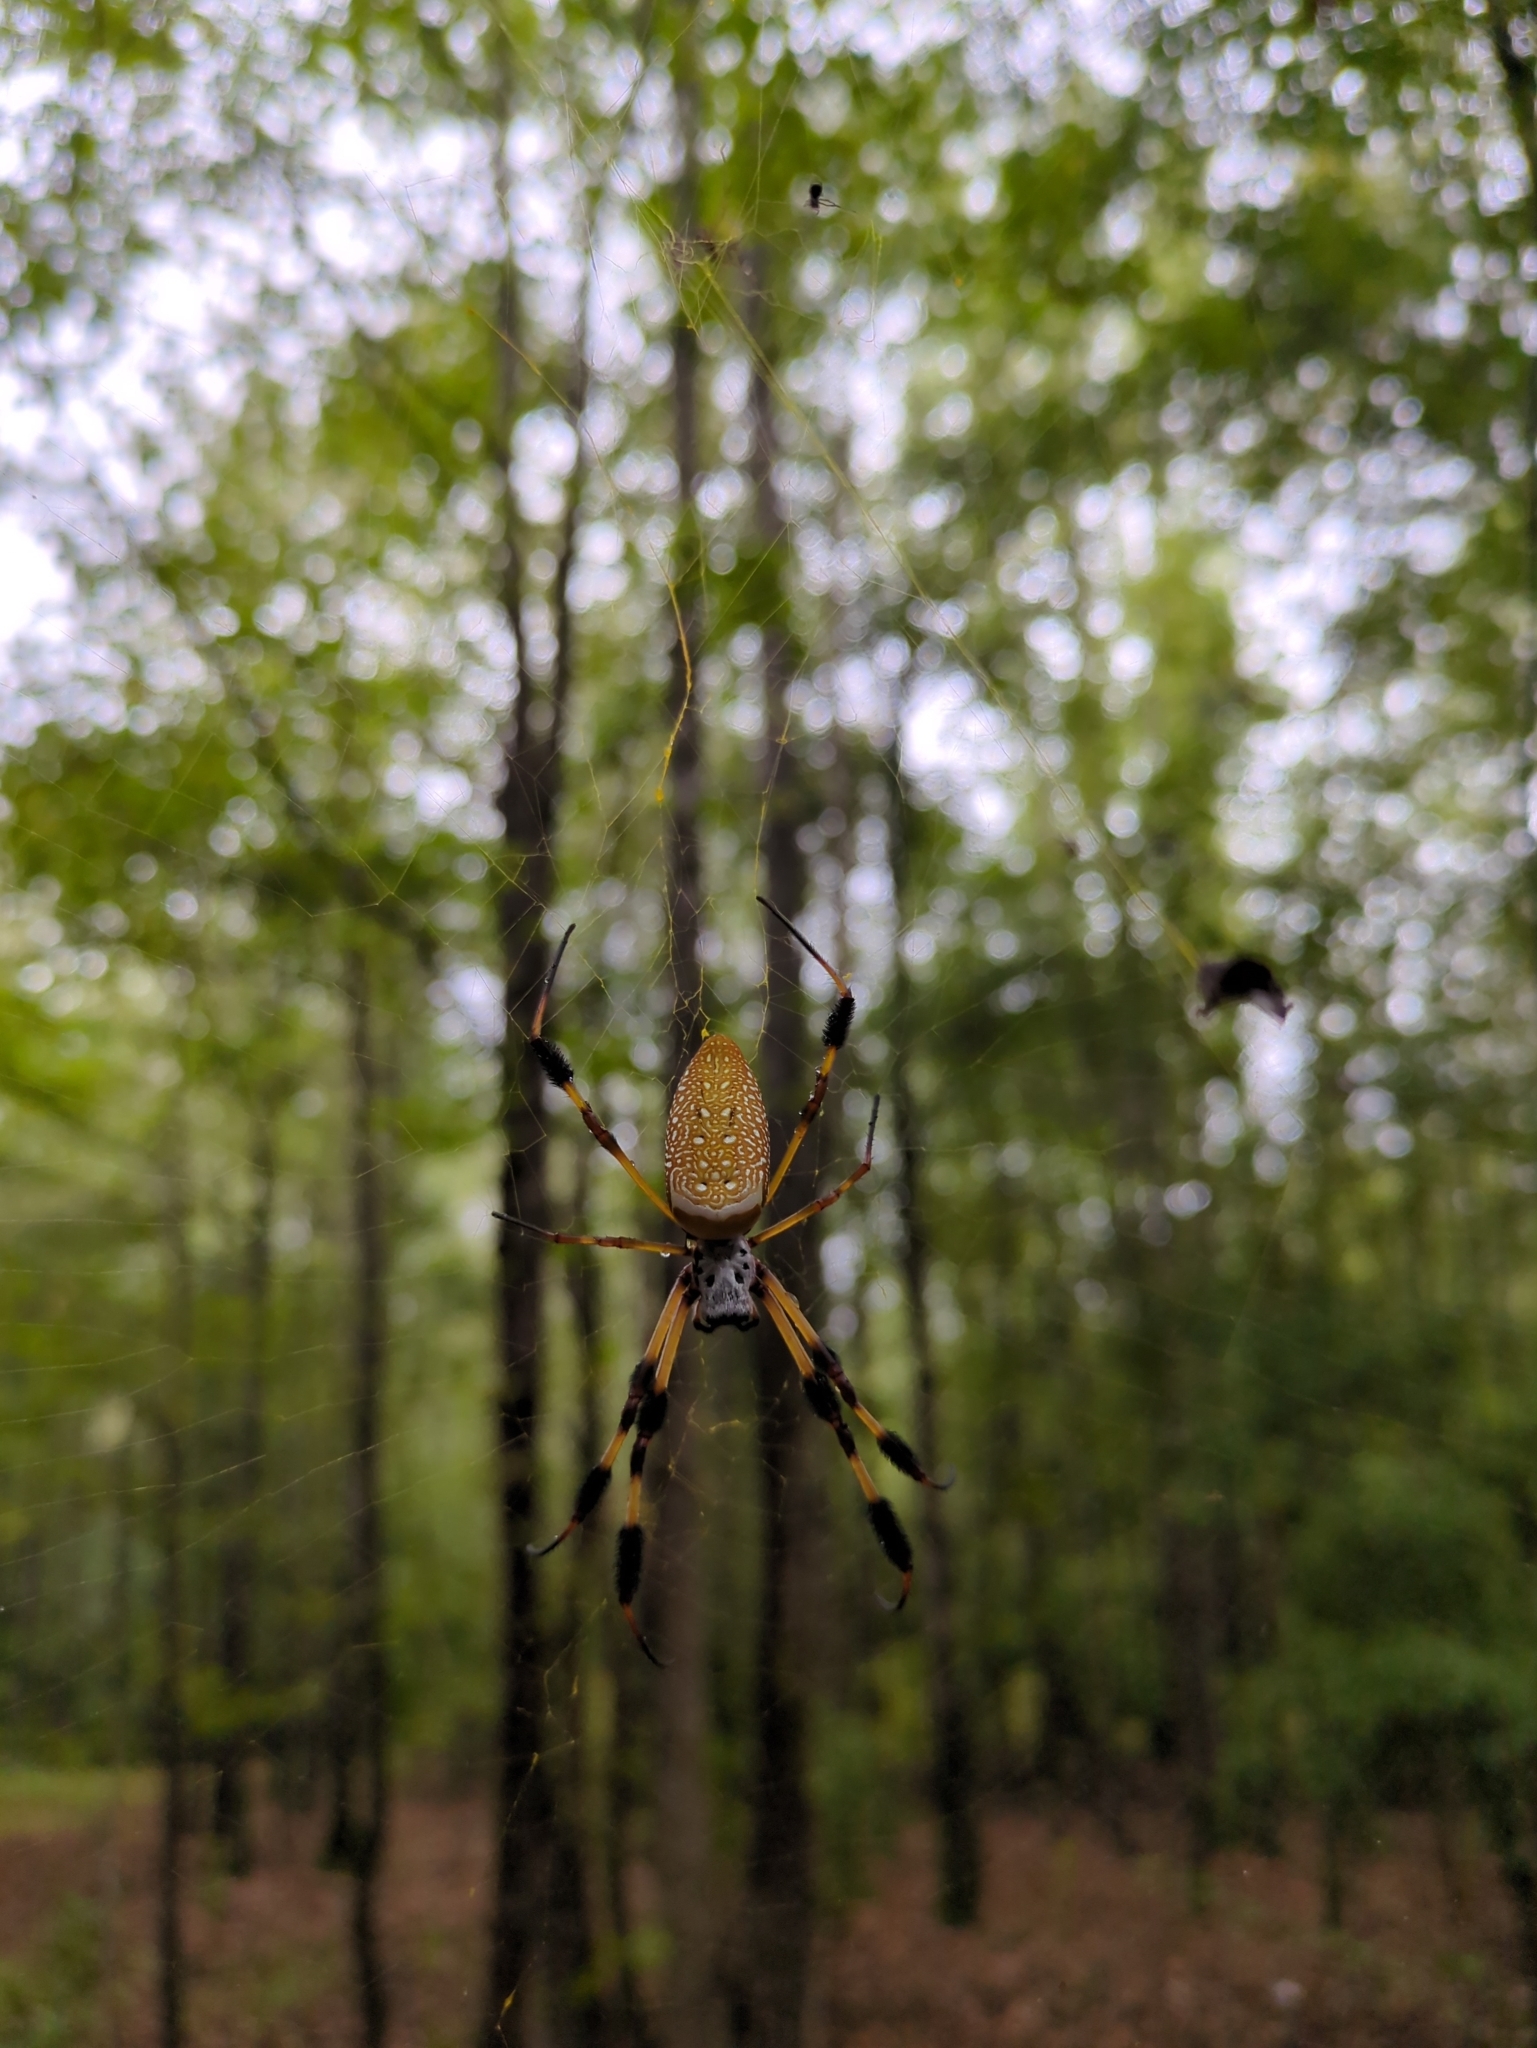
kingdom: Animalia
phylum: Arthropoda
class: Arachnida
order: Araneae
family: Araneidae
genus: Trichonephila
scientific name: Trichonephila clavipes
